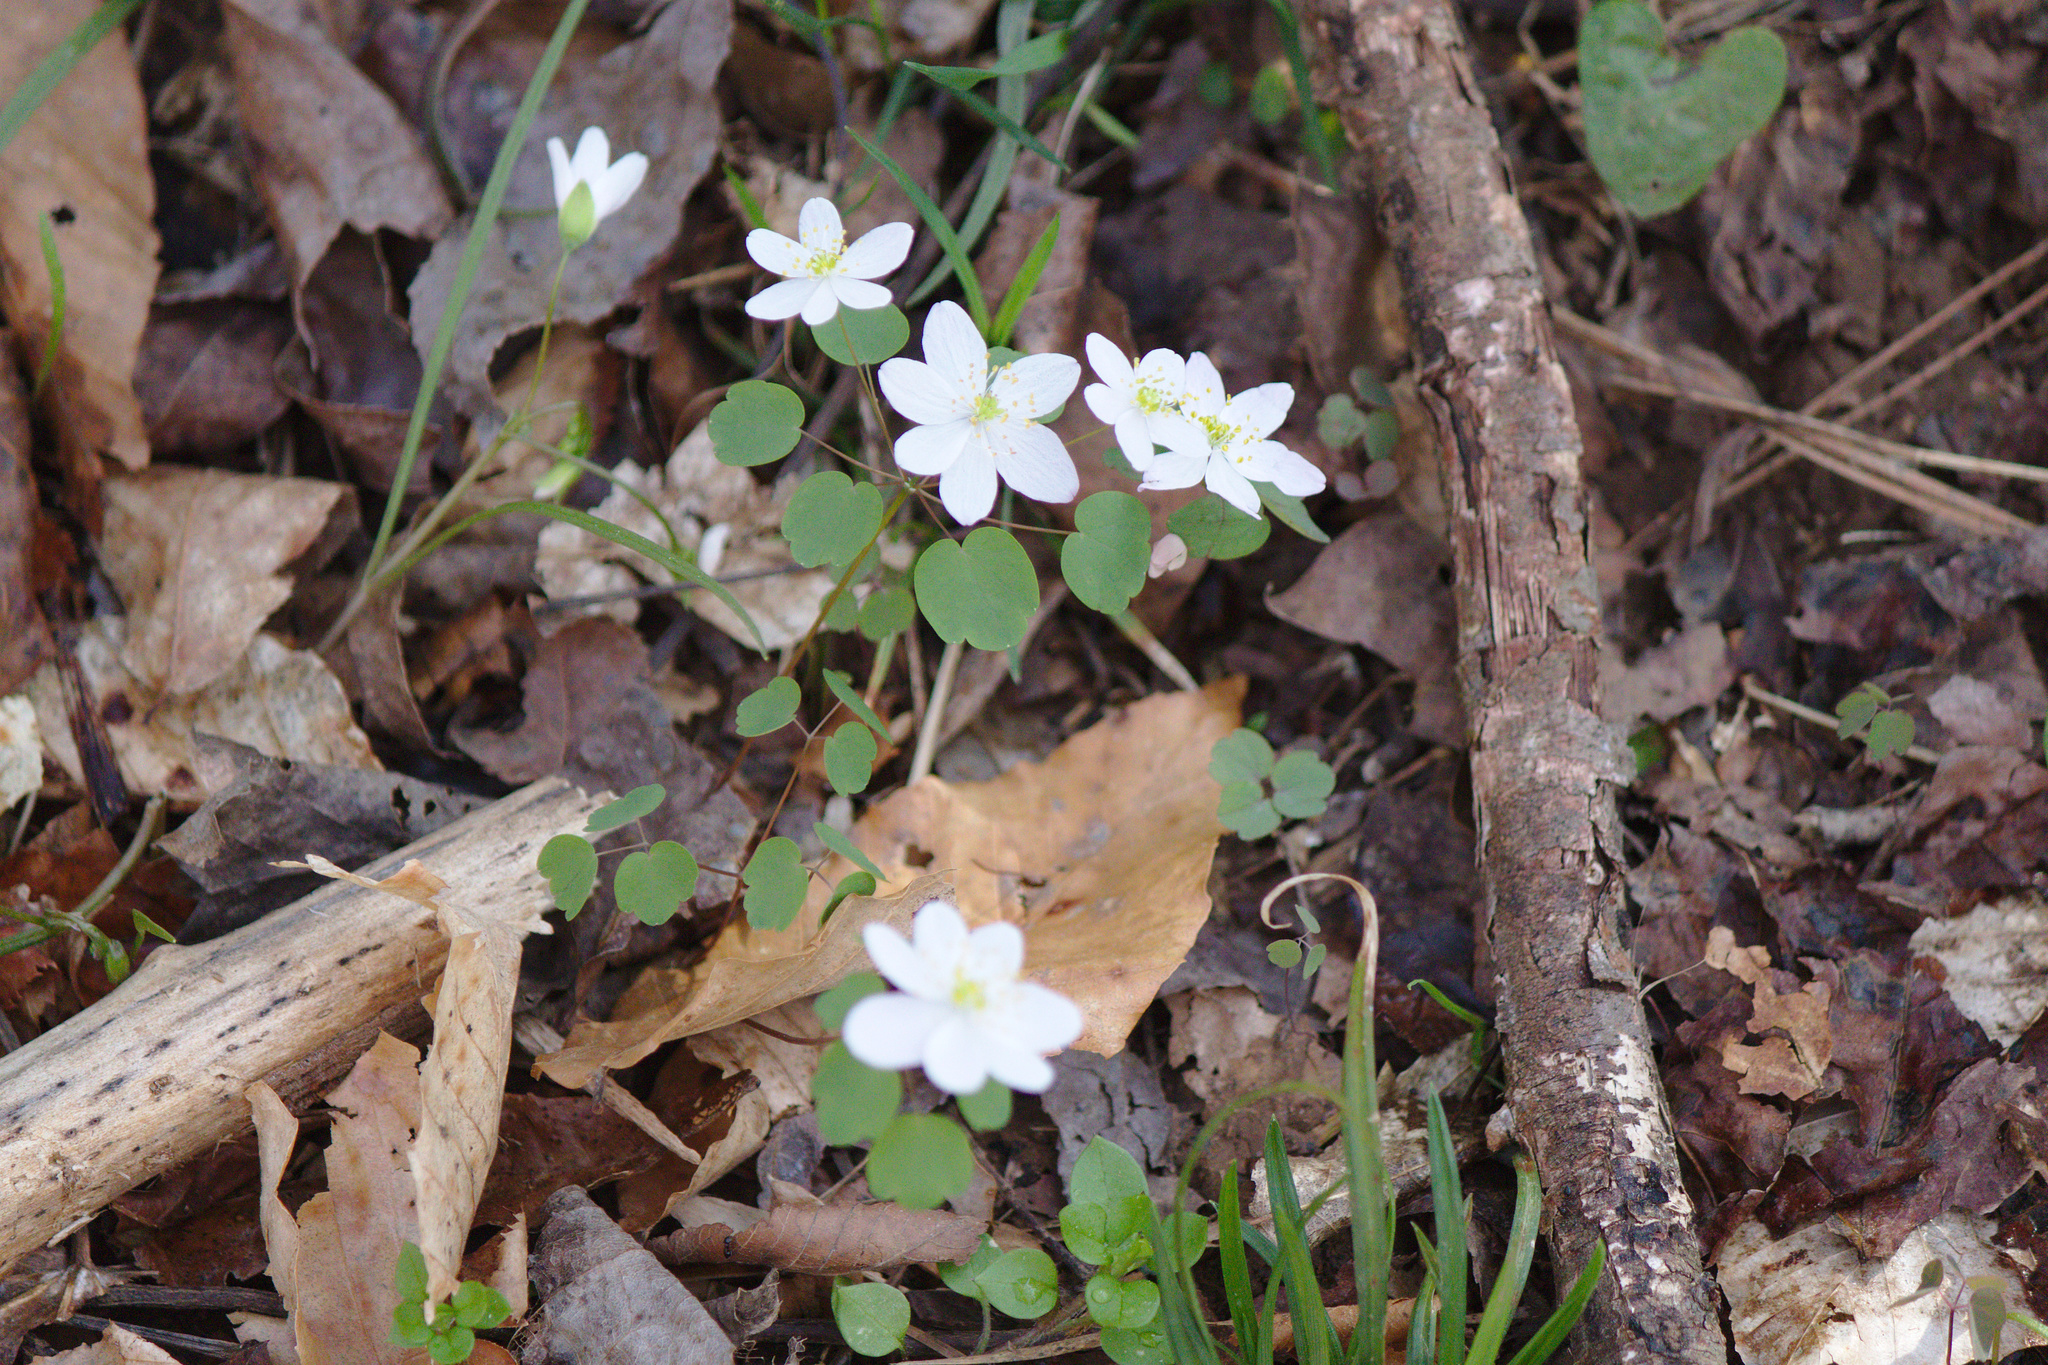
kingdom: Plantae
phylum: Tracheophyta
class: Magnoliopsida
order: Ranunculales
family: Ranunculaceae
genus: Thalictrum
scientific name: Thalictrum thalictroides
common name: Rue-anemone
